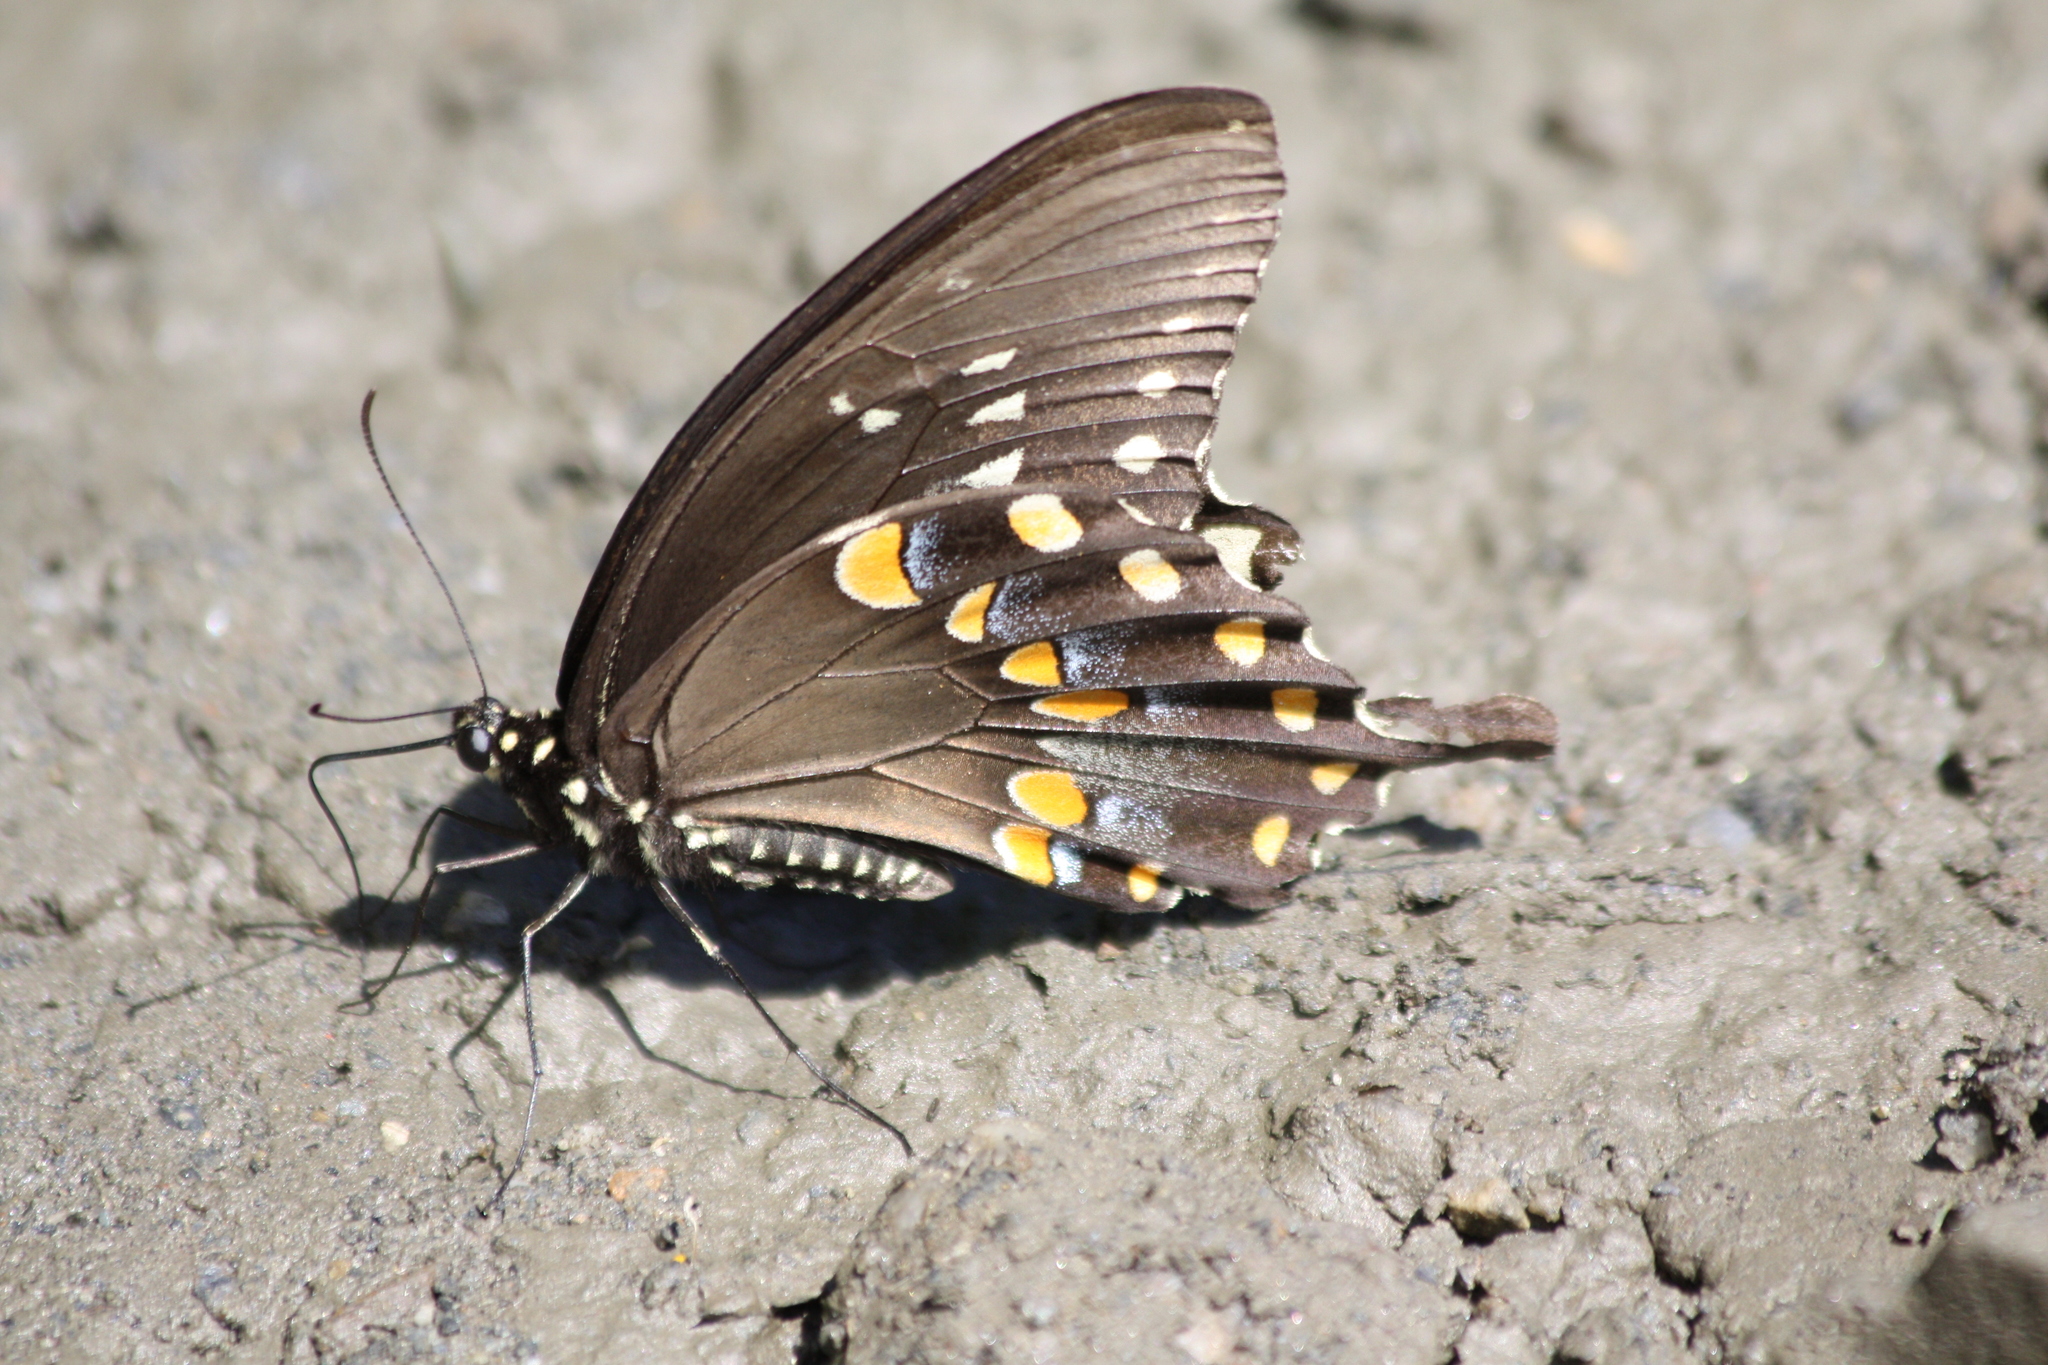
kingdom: Animalia
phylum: Arthropoda
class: Insecta
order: Lepidoptera
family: Papilionidae
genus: Papilio
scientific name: Papilio troilus
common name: Spicebush swallowtail
